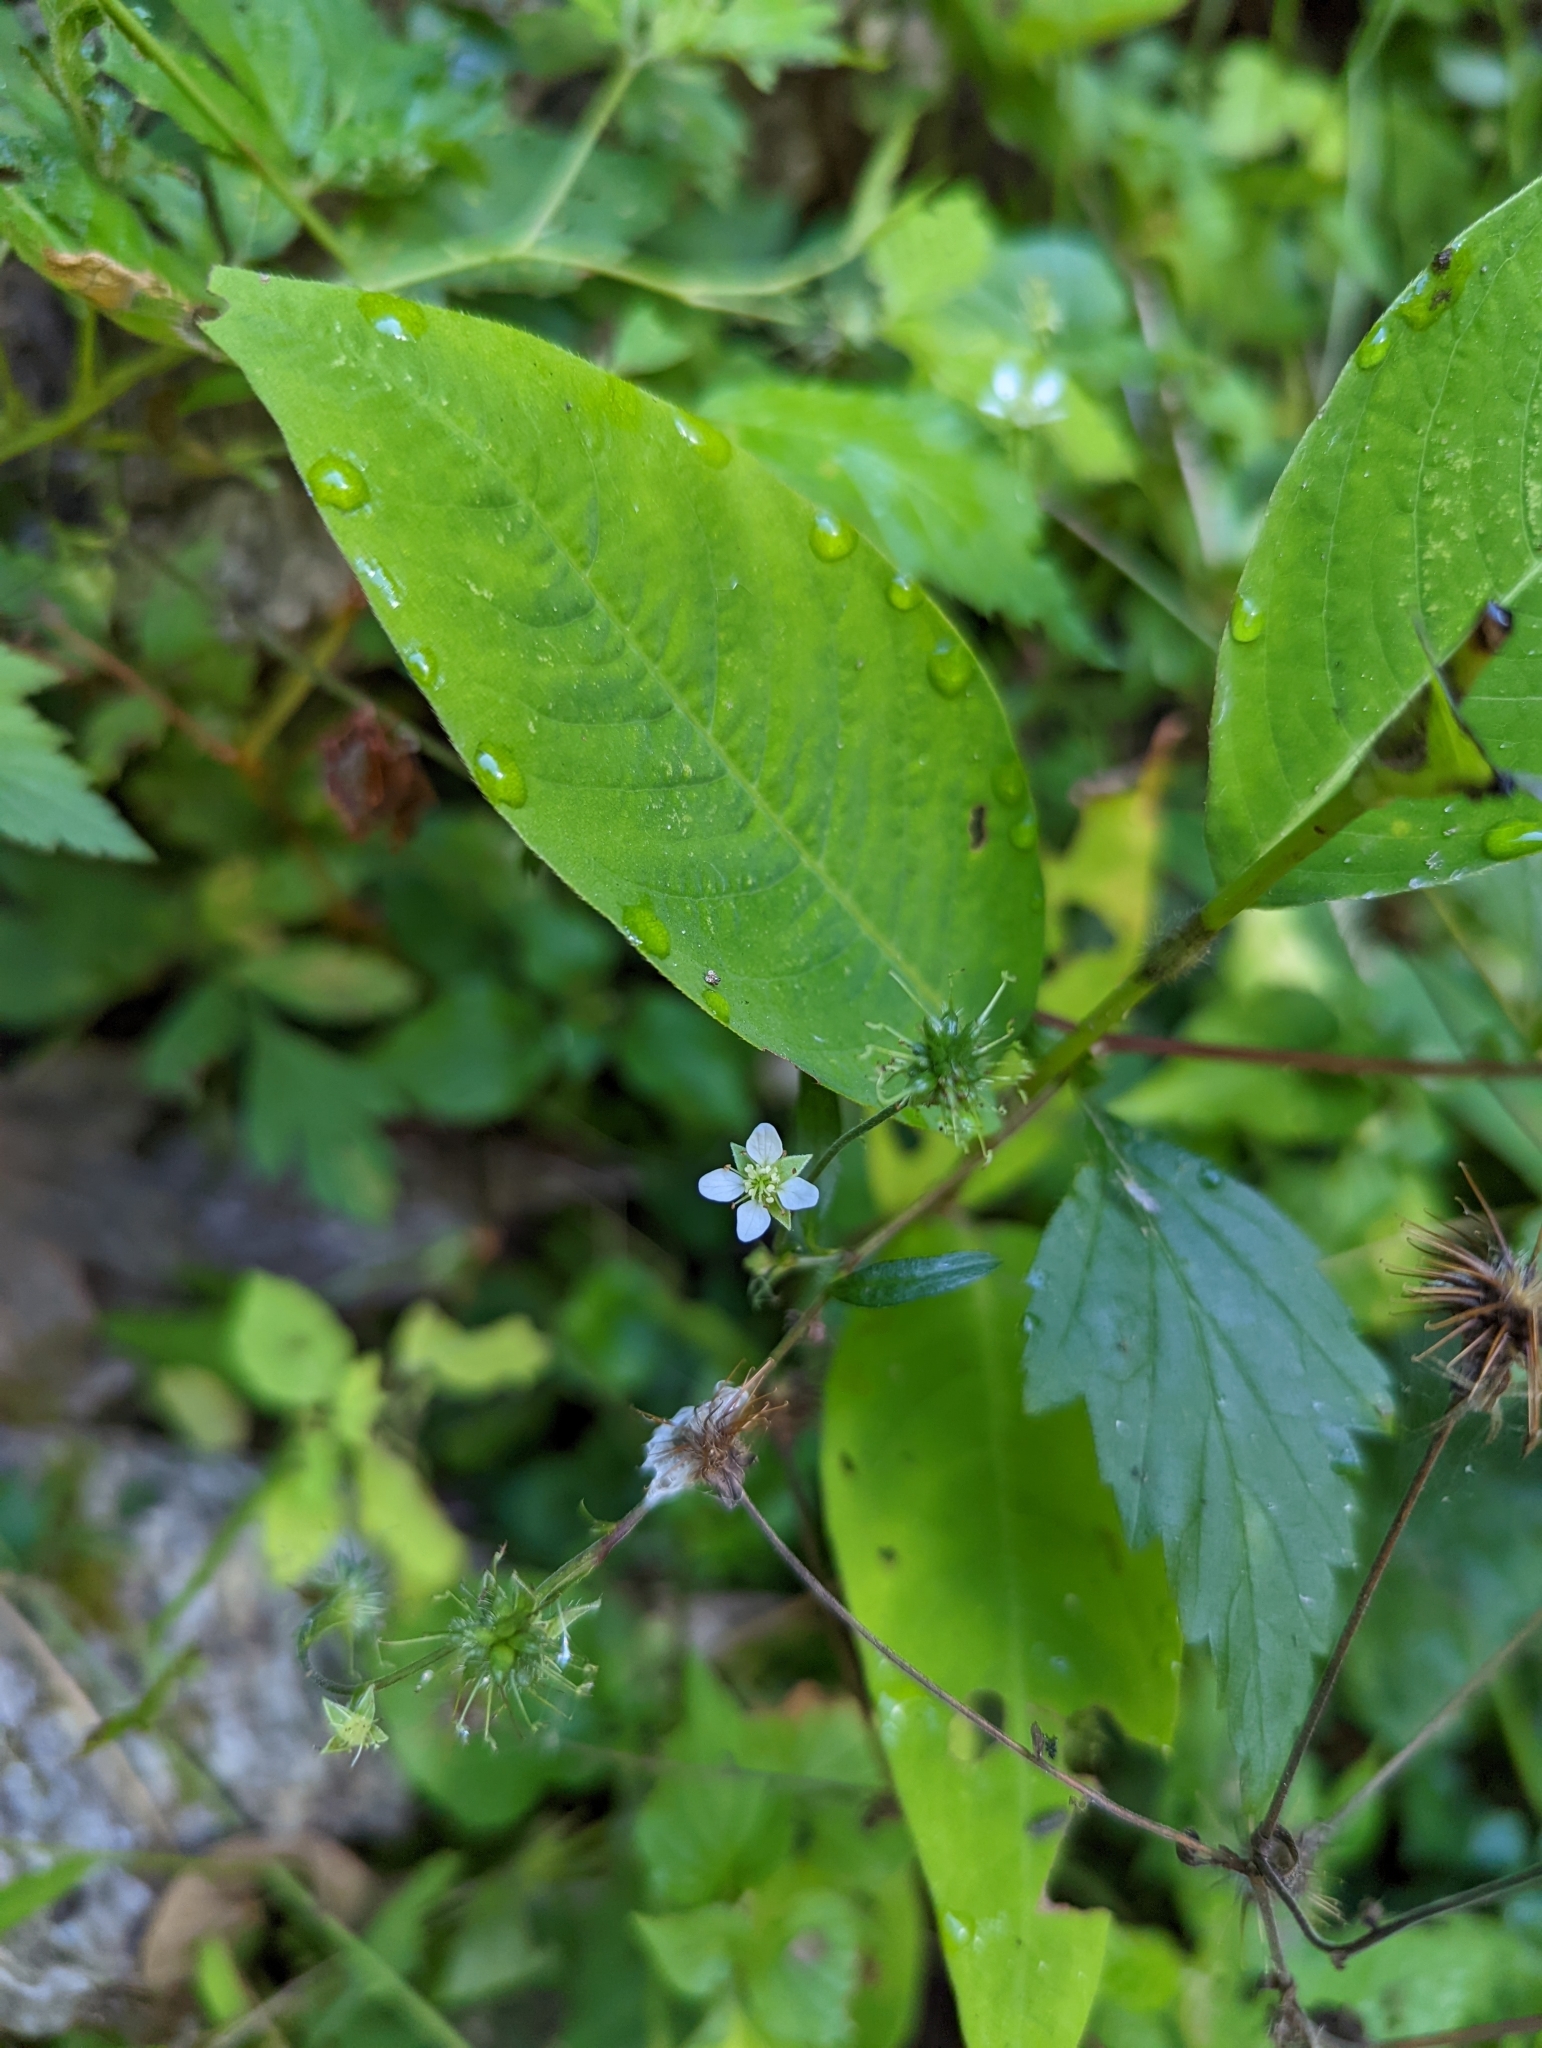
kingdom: Plantae
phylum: Tracheophyta
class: Magnoliopsida
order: Rosales
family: Rosaceae
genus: Geum
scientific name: Geum canadense
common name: White avens
